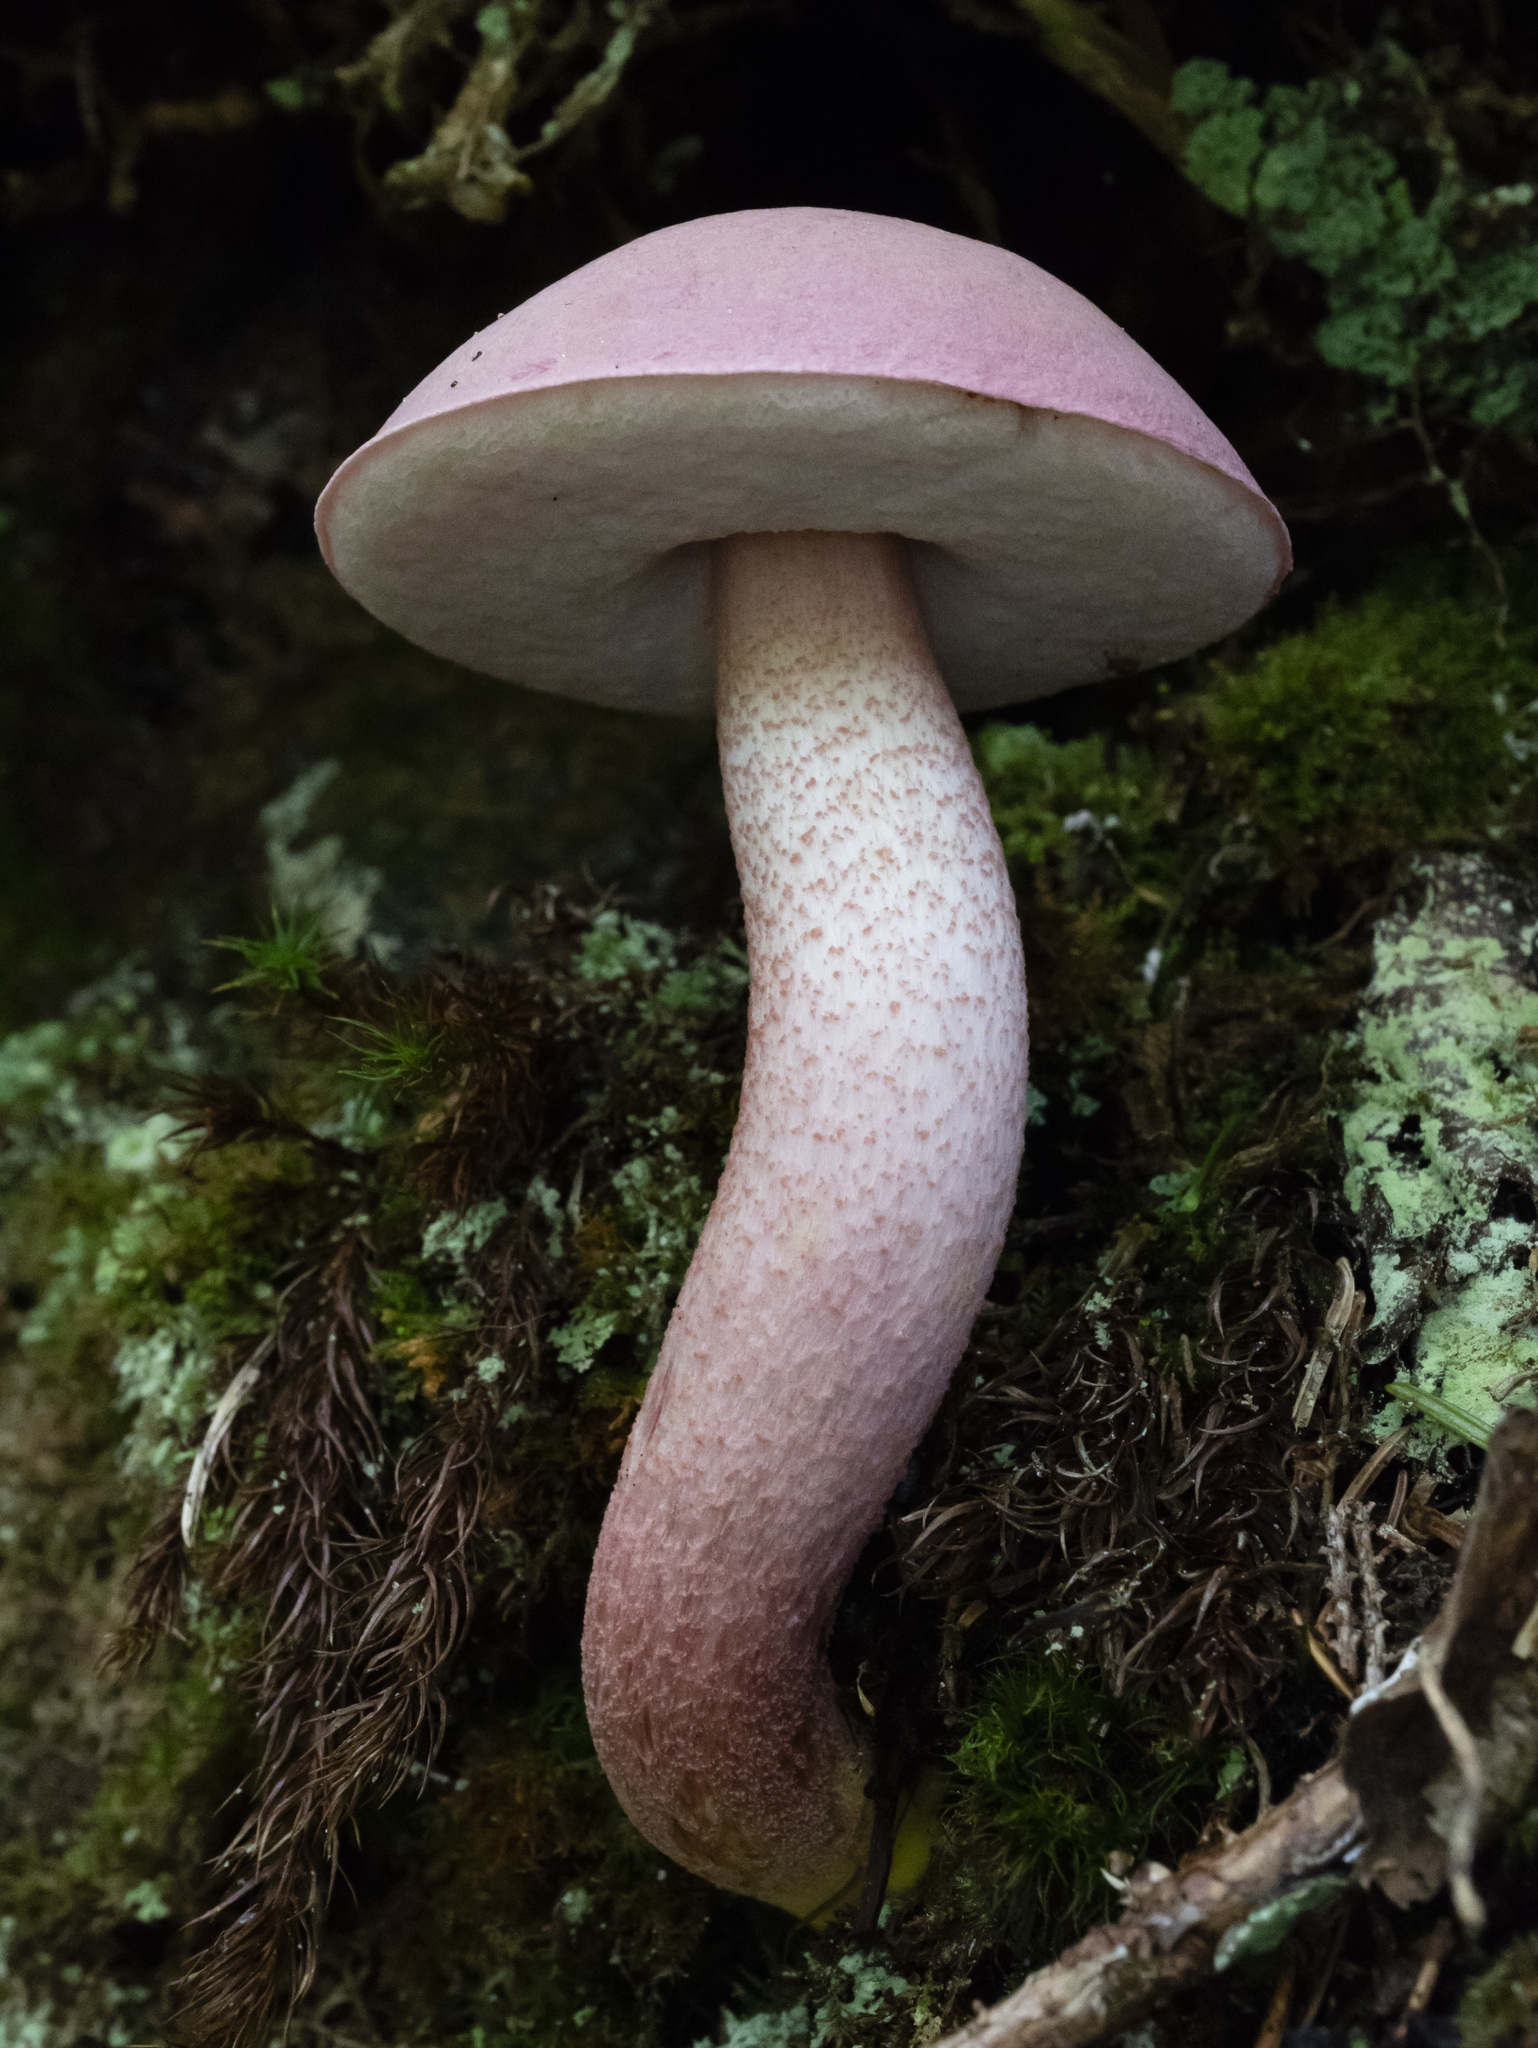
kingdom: Fungi
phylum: Basidiomycota
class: Agaricomycetes
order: Boletales
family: Boletaceae
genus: Harrya
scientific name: Harrya chromipes
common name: Chrome-footed bolete
